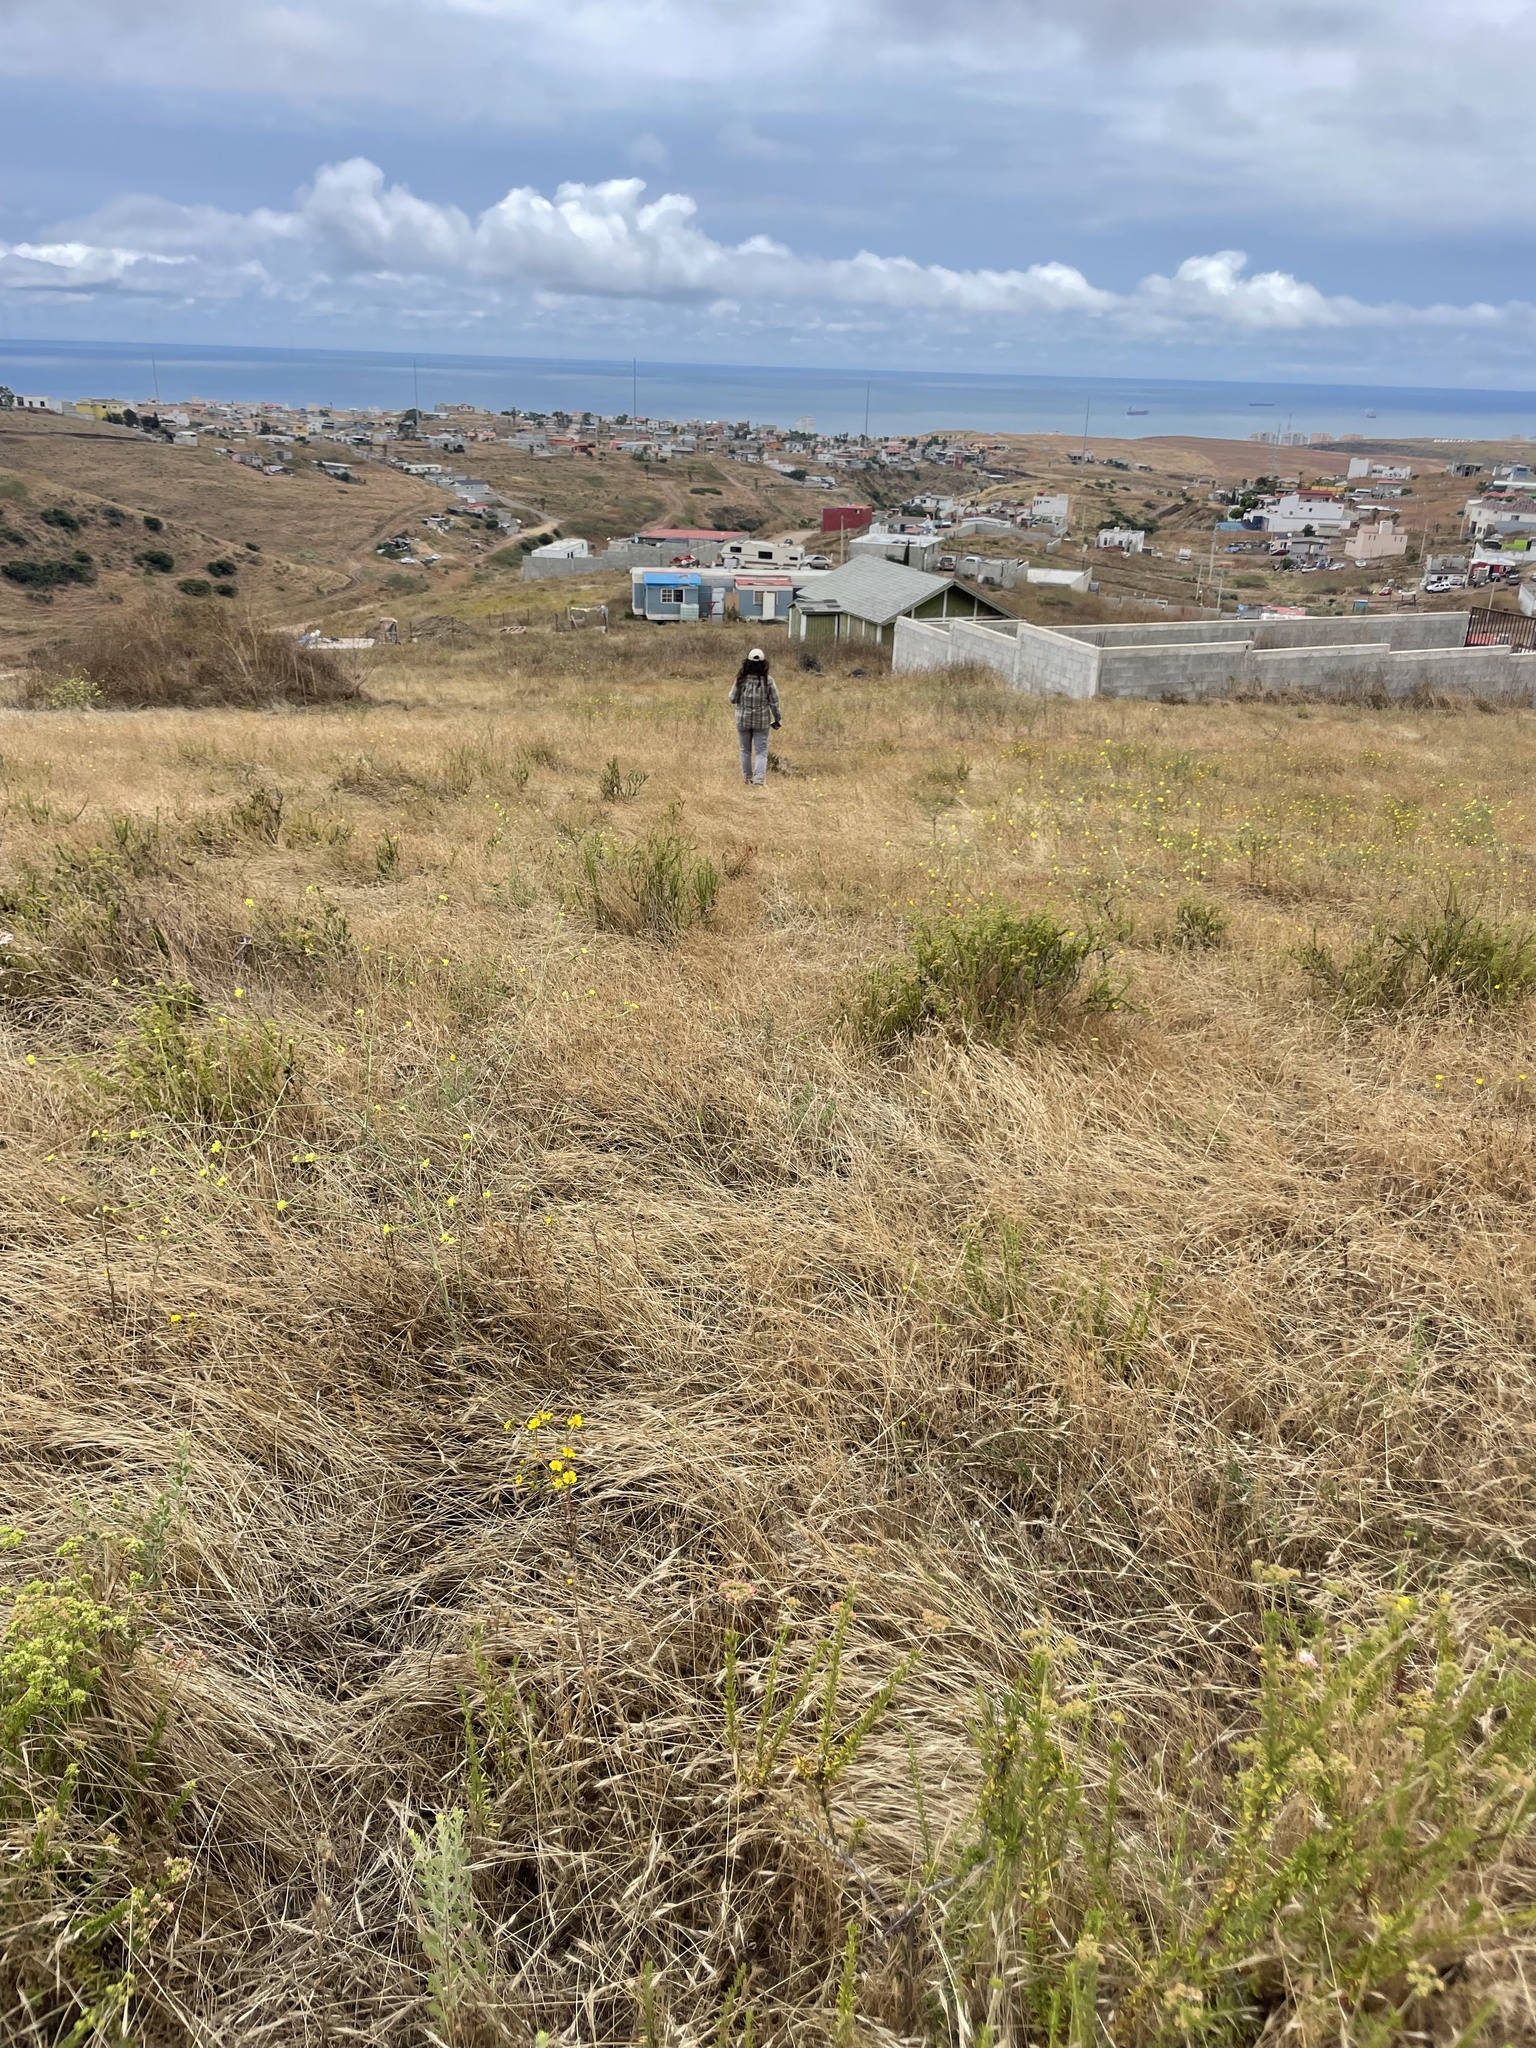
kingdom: Plantae
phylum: Tracheophyta
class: Magnoliopsida
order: Asterales
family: Asteraceae
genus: Deinandra
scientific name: Deinandra conjugens
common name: Otay tarplant
